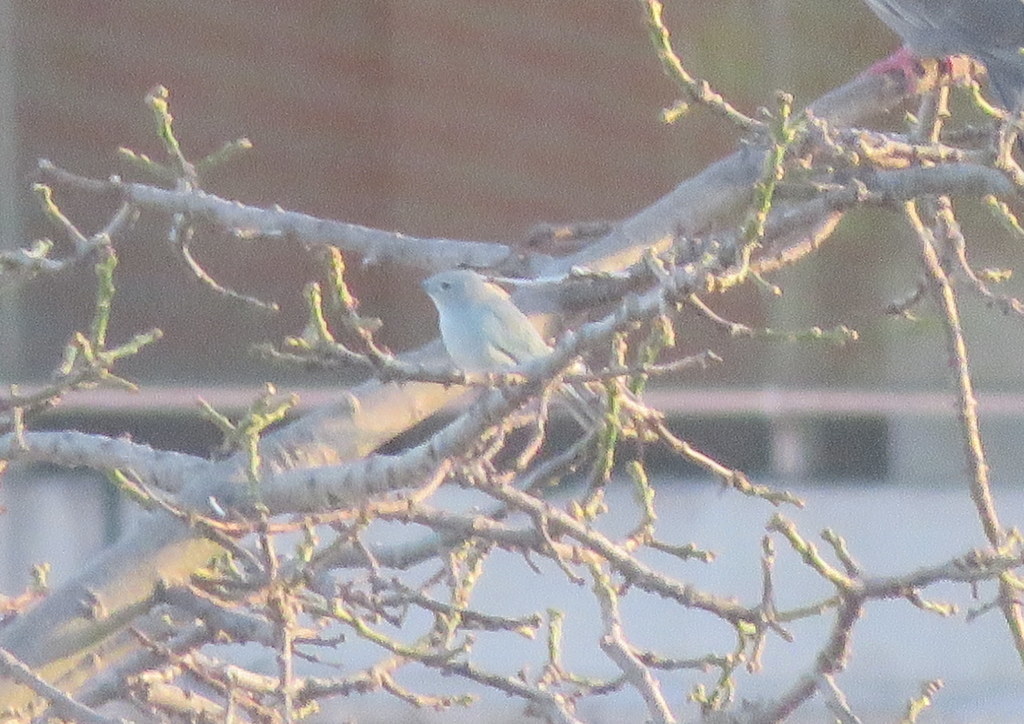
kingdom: Animalia
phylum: Chordata
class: Aves
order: Passeriformes
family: Thraupidae
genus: Thraupis
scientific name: Thraupis sayaca
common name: Sayaca tanager
